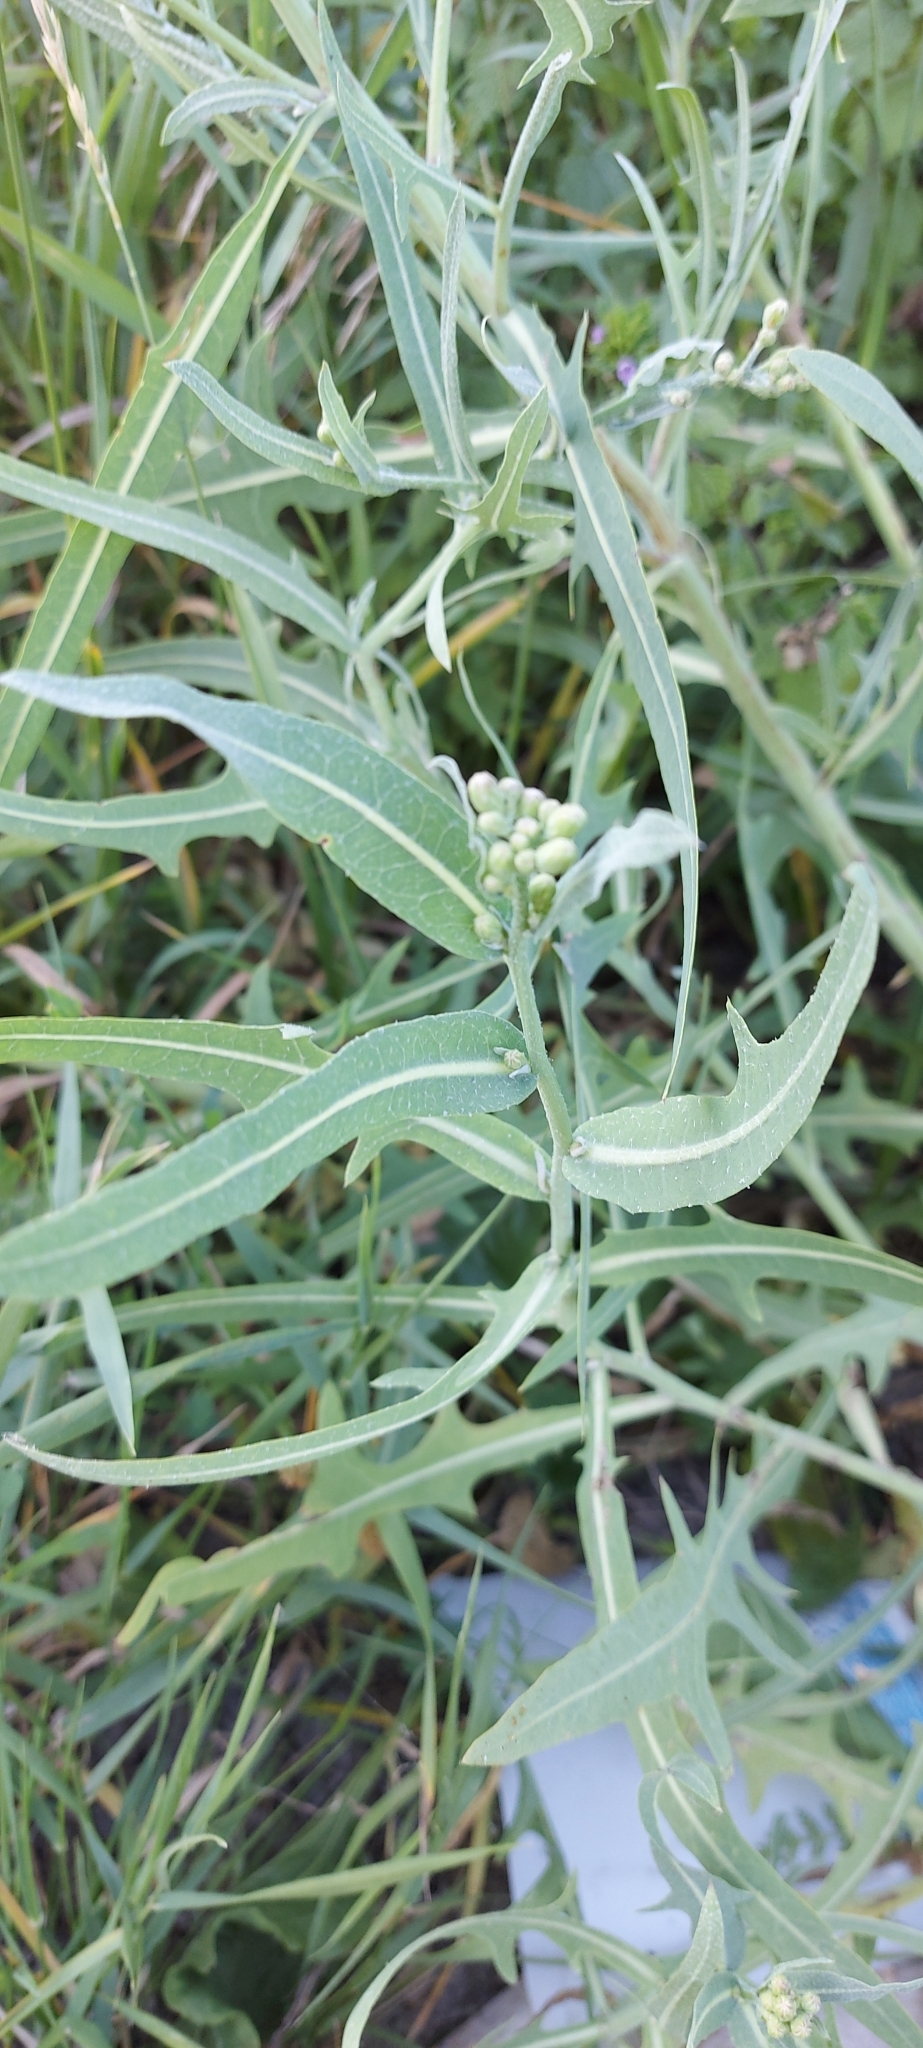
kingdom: Plantae
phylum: Tracheophyta
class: Magnoliopsida
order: Asterales
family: Asteraceae
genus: Lactuca
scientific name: Lactuca tatarica
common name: Blue lettuce
